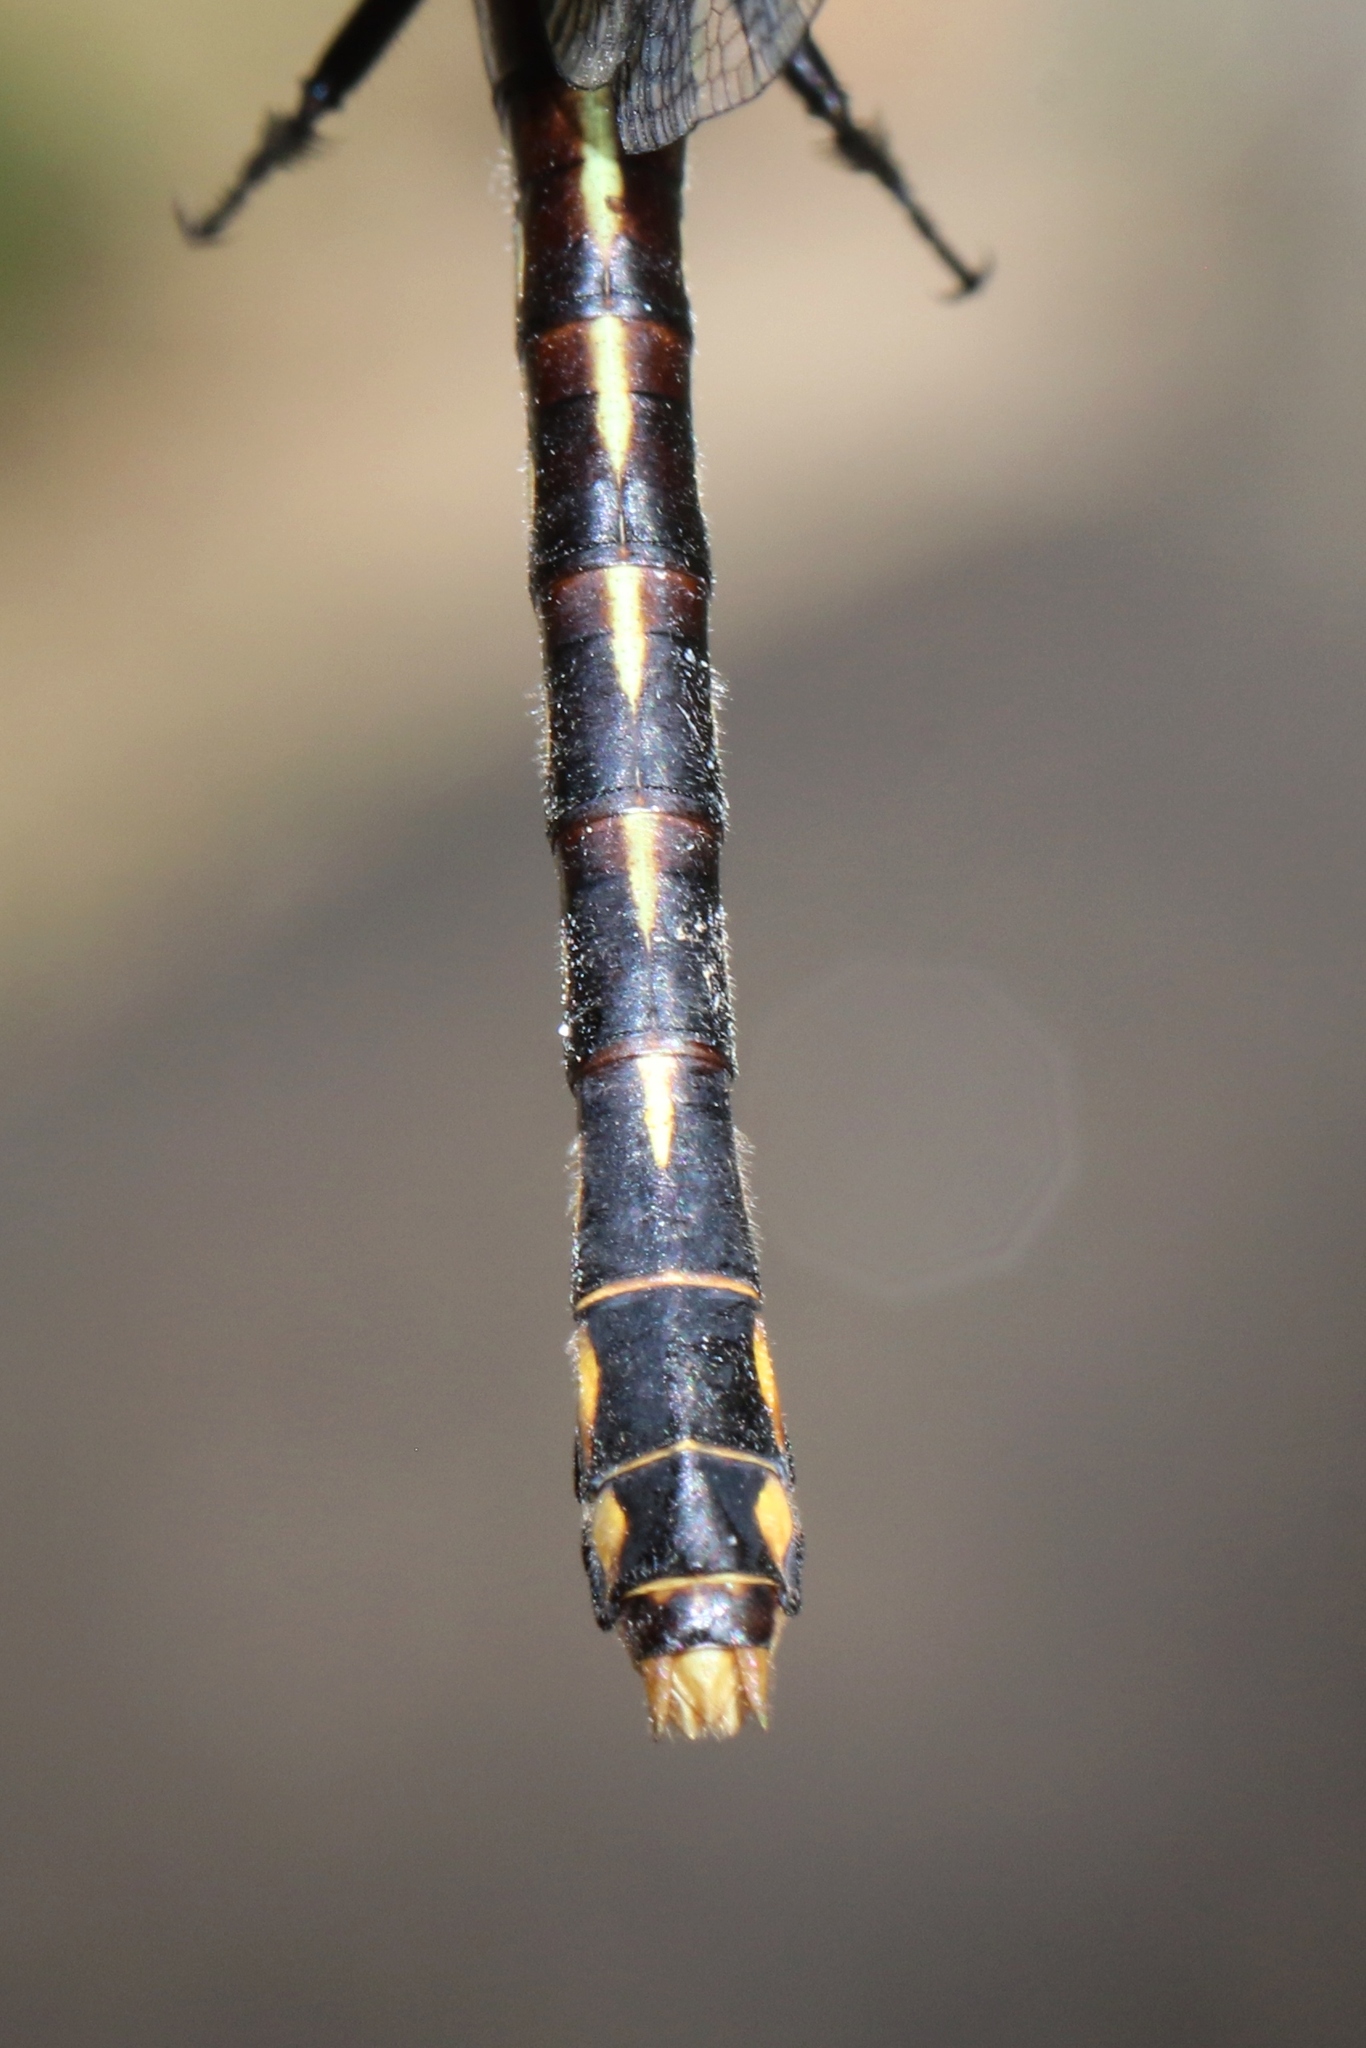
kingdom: Animalia
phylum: Arthropoda
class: Insecta
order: Odonata
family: Gomphidae
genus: Ophiogomphus
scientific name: Ophiogomphus mainensis
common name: Maine snaketail
